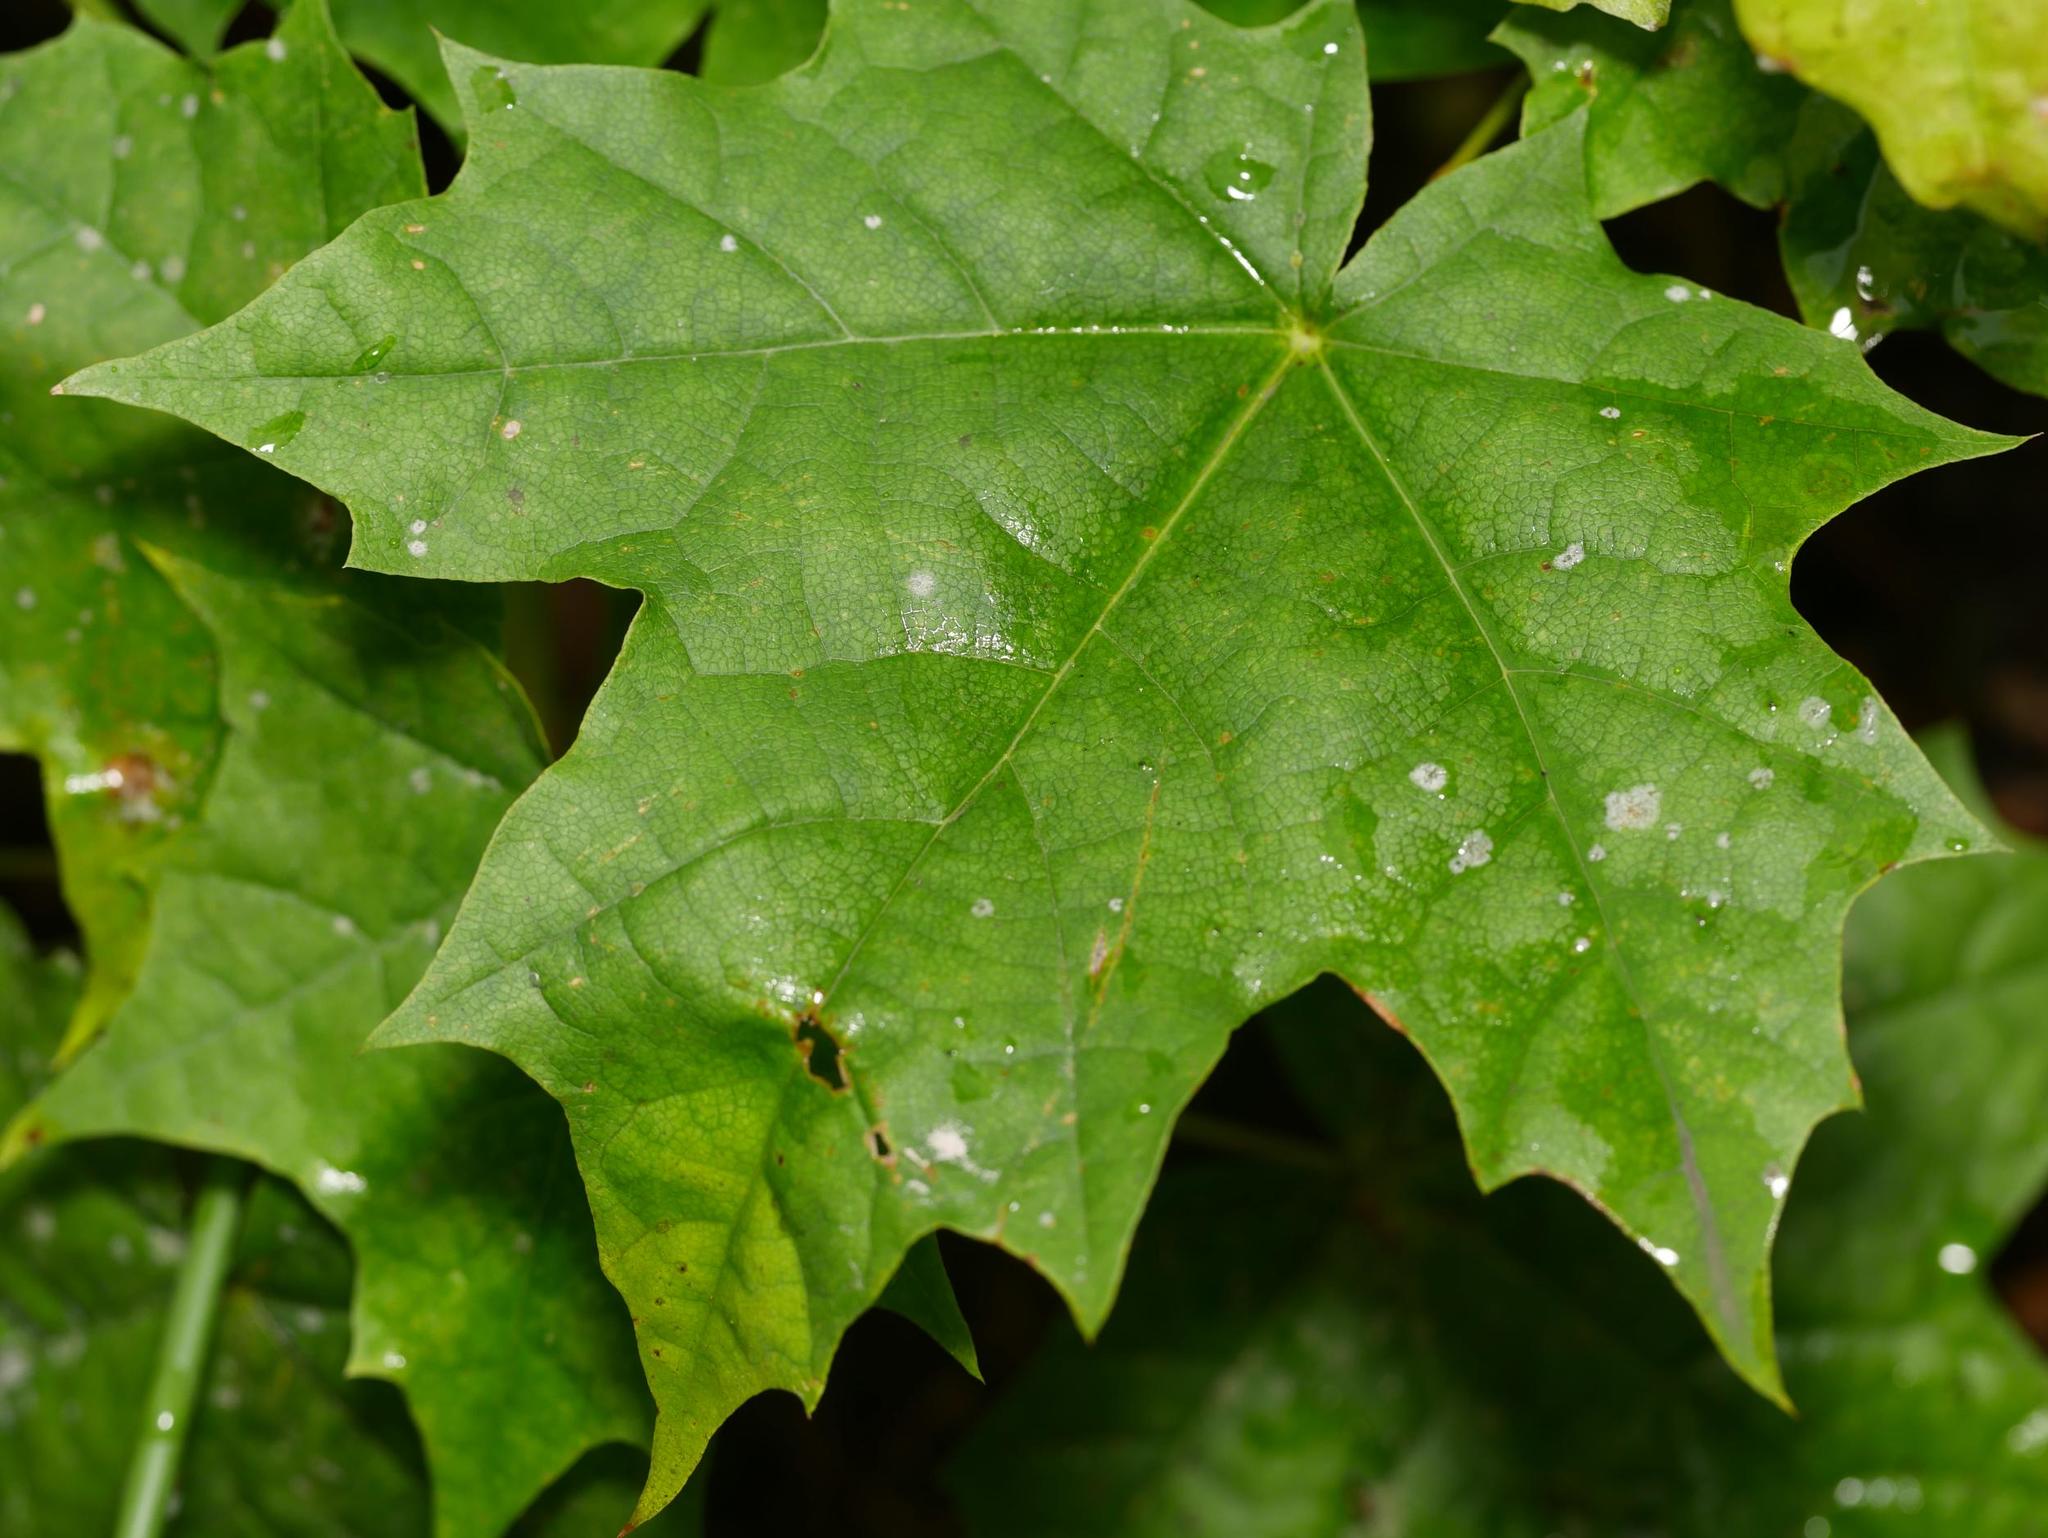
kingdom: Fungi
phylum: Ascomycota
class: Leotiomycetes
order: Helotiales
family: Erysiphaceae
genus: Sawadaea
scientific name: Sawadaea tulasnei
